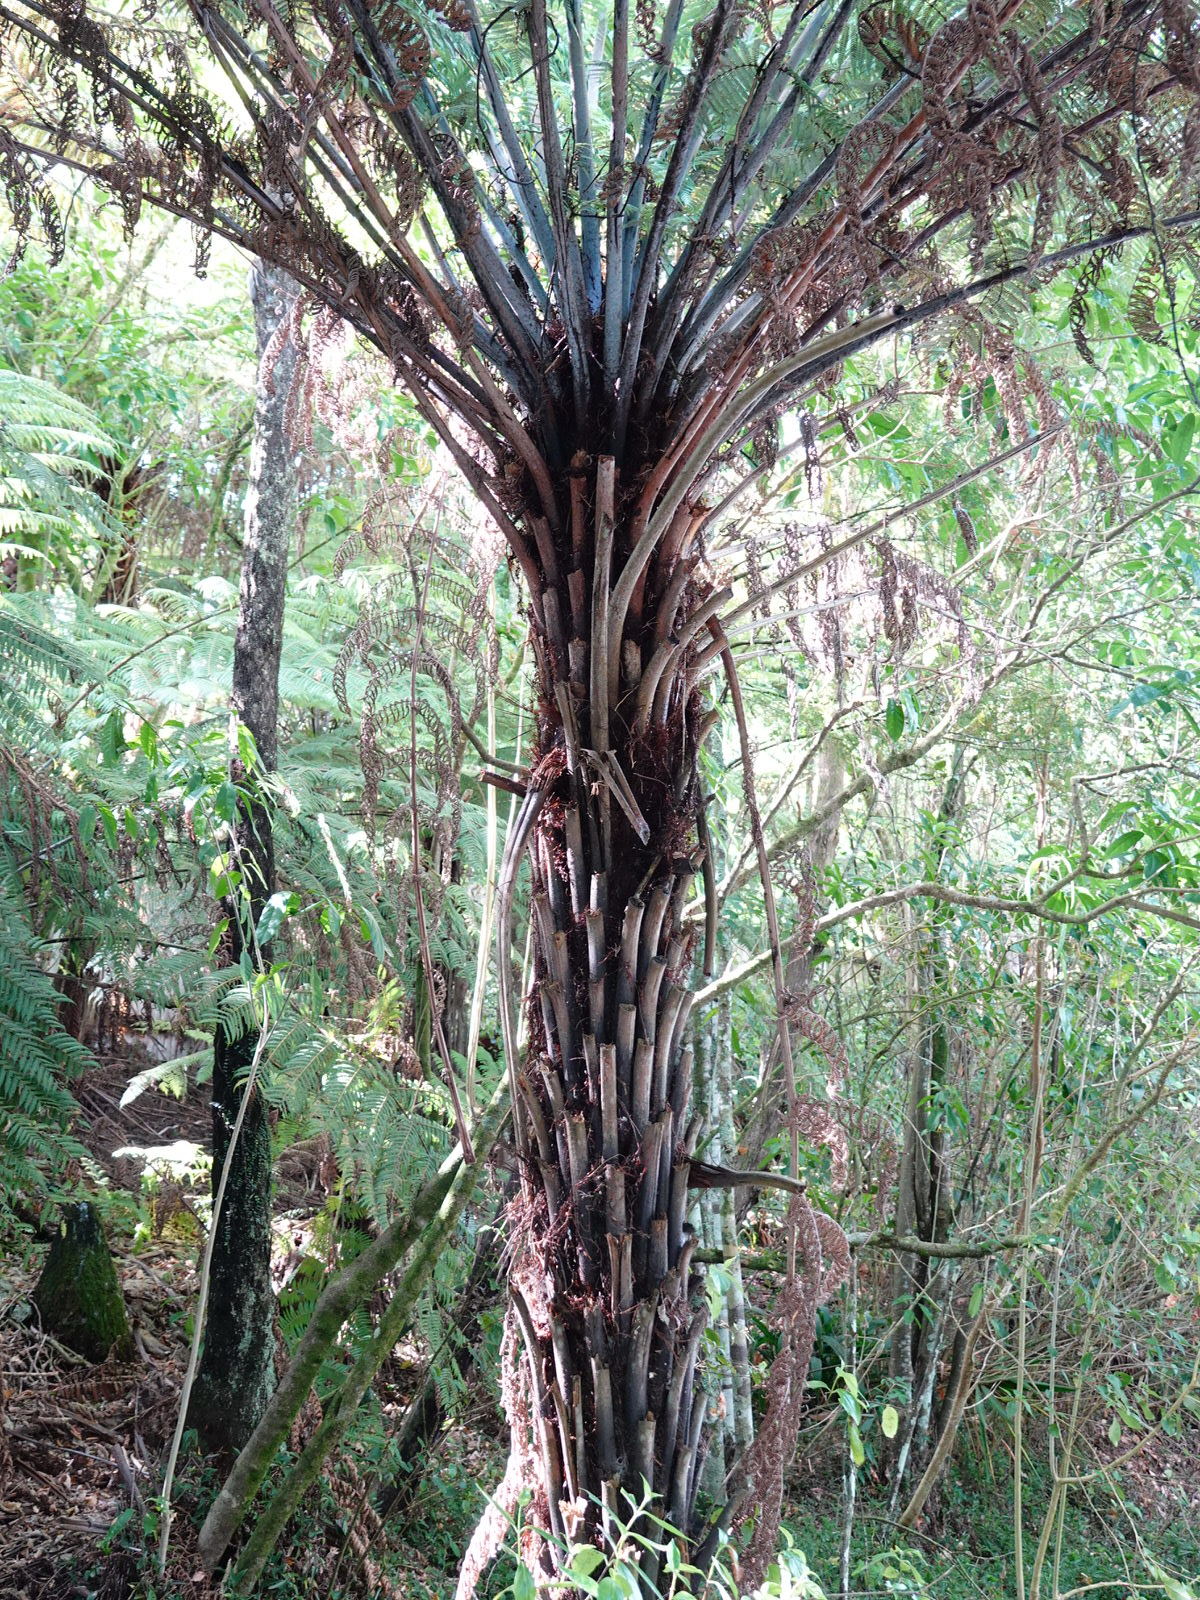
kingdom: Plantae
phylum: Tracheophyta
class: Polypodiopsida
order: Cyatheales
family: Cyatheaceae
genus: Alsophila
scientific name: Alsophila dealbata
